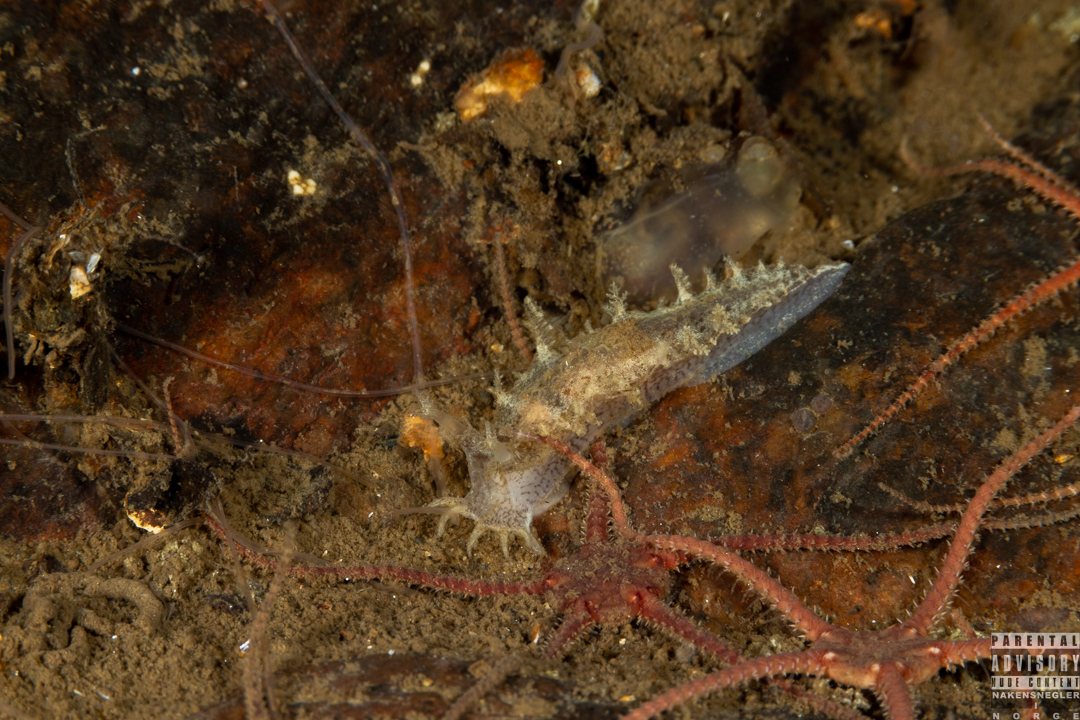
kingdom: Animalia
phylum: Mollusca
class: Gastropoda
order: Nudibranchia
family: Tritoniidae
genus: Duvaucelia
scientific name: Duvaucelia plebeia
